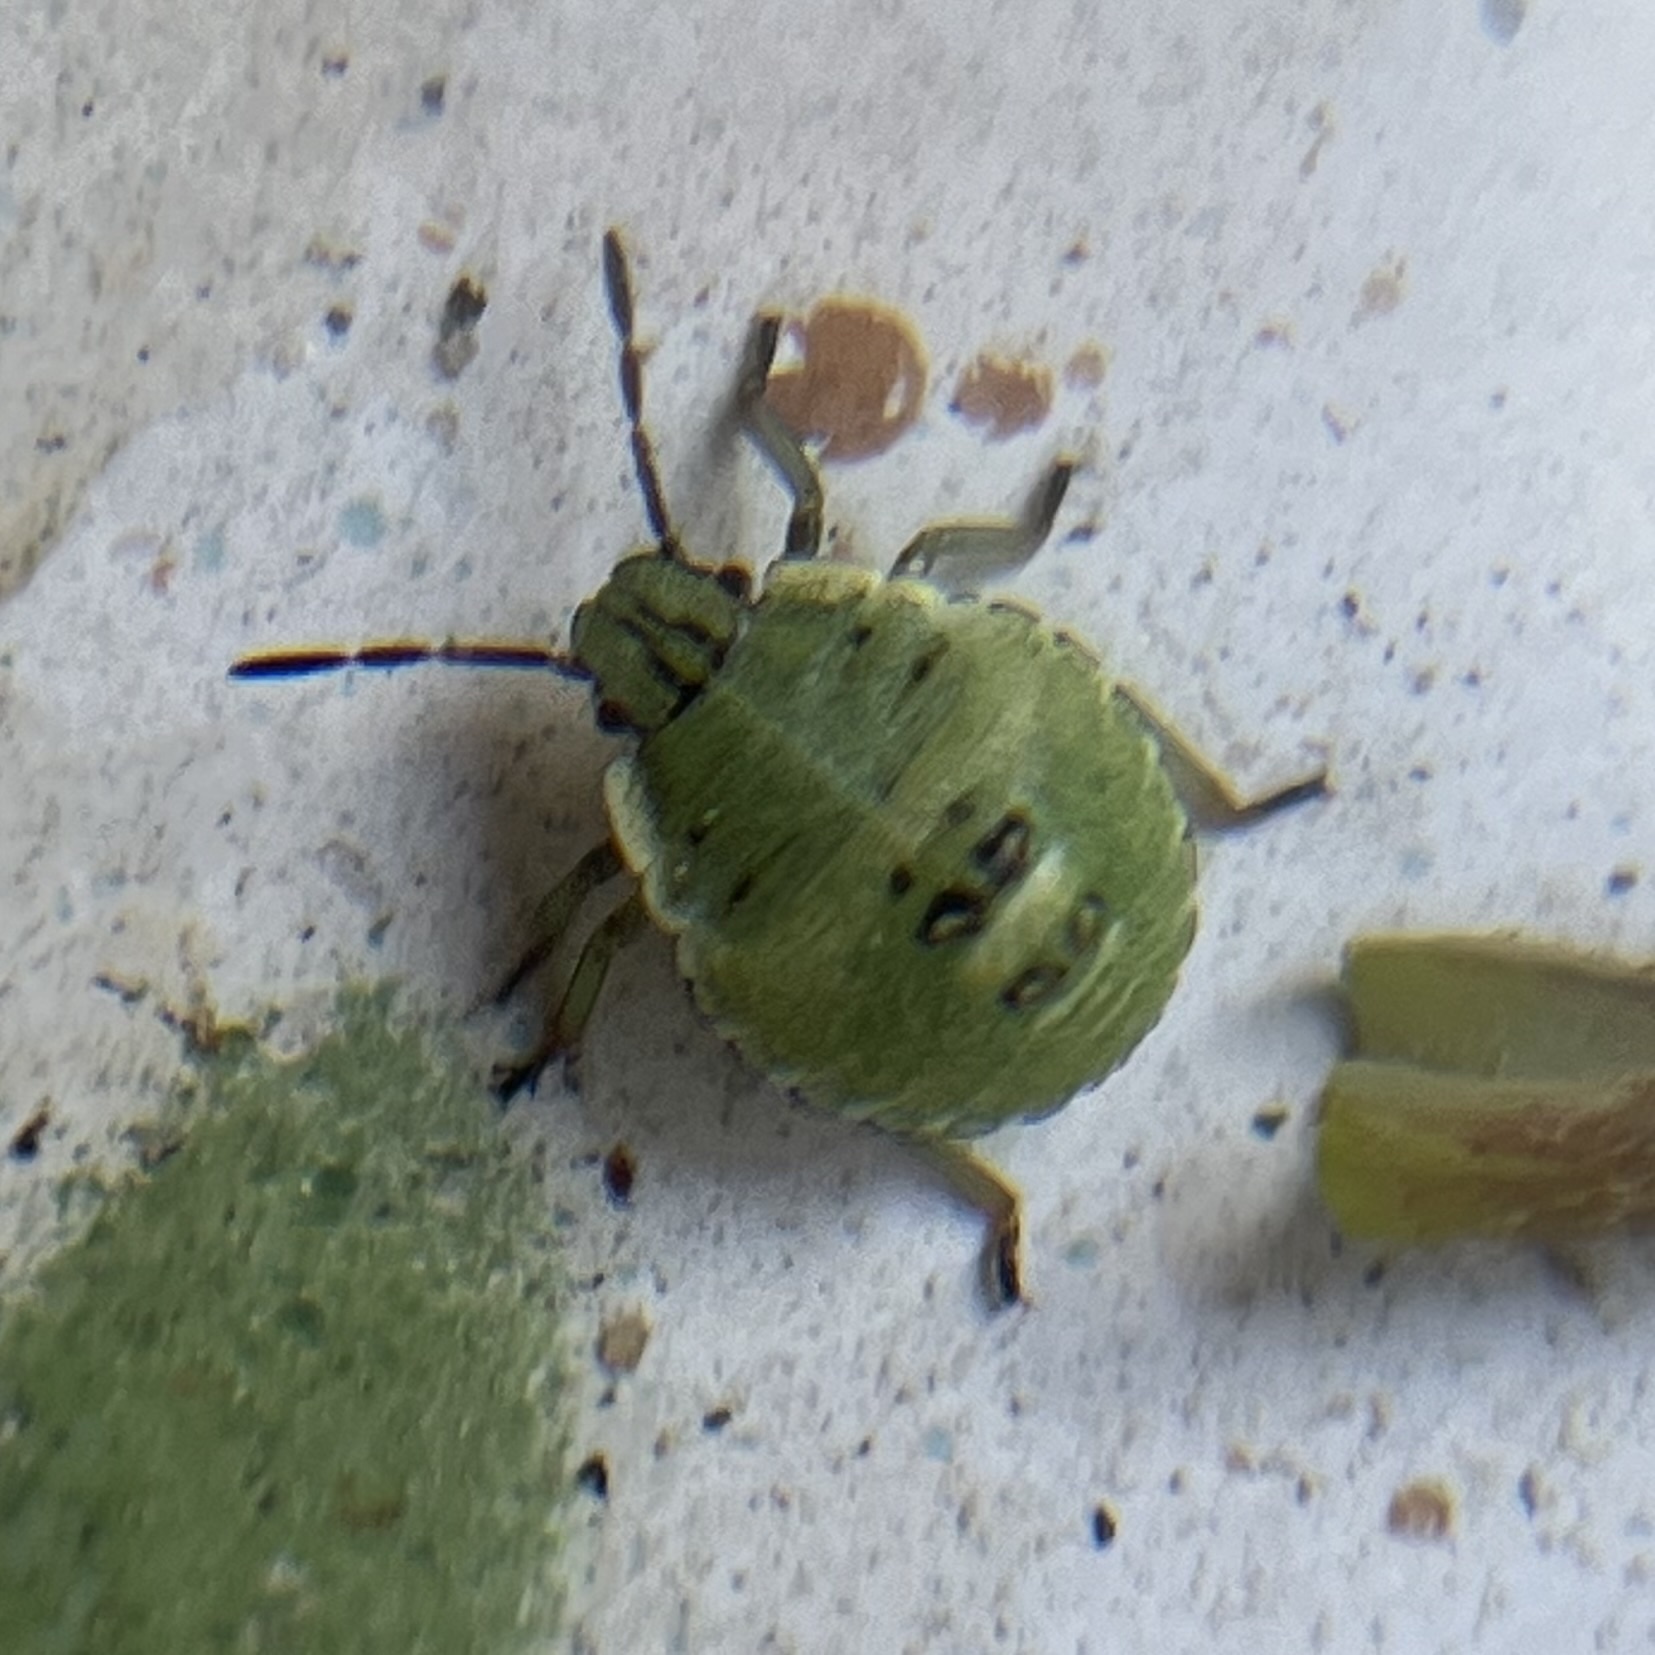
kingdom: Animalia
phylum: Arthropoda
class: Insecta
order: Hemiptera
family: Pentatomidae
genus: Palomena
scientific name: Palomena prasina
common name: Green shieldbug
